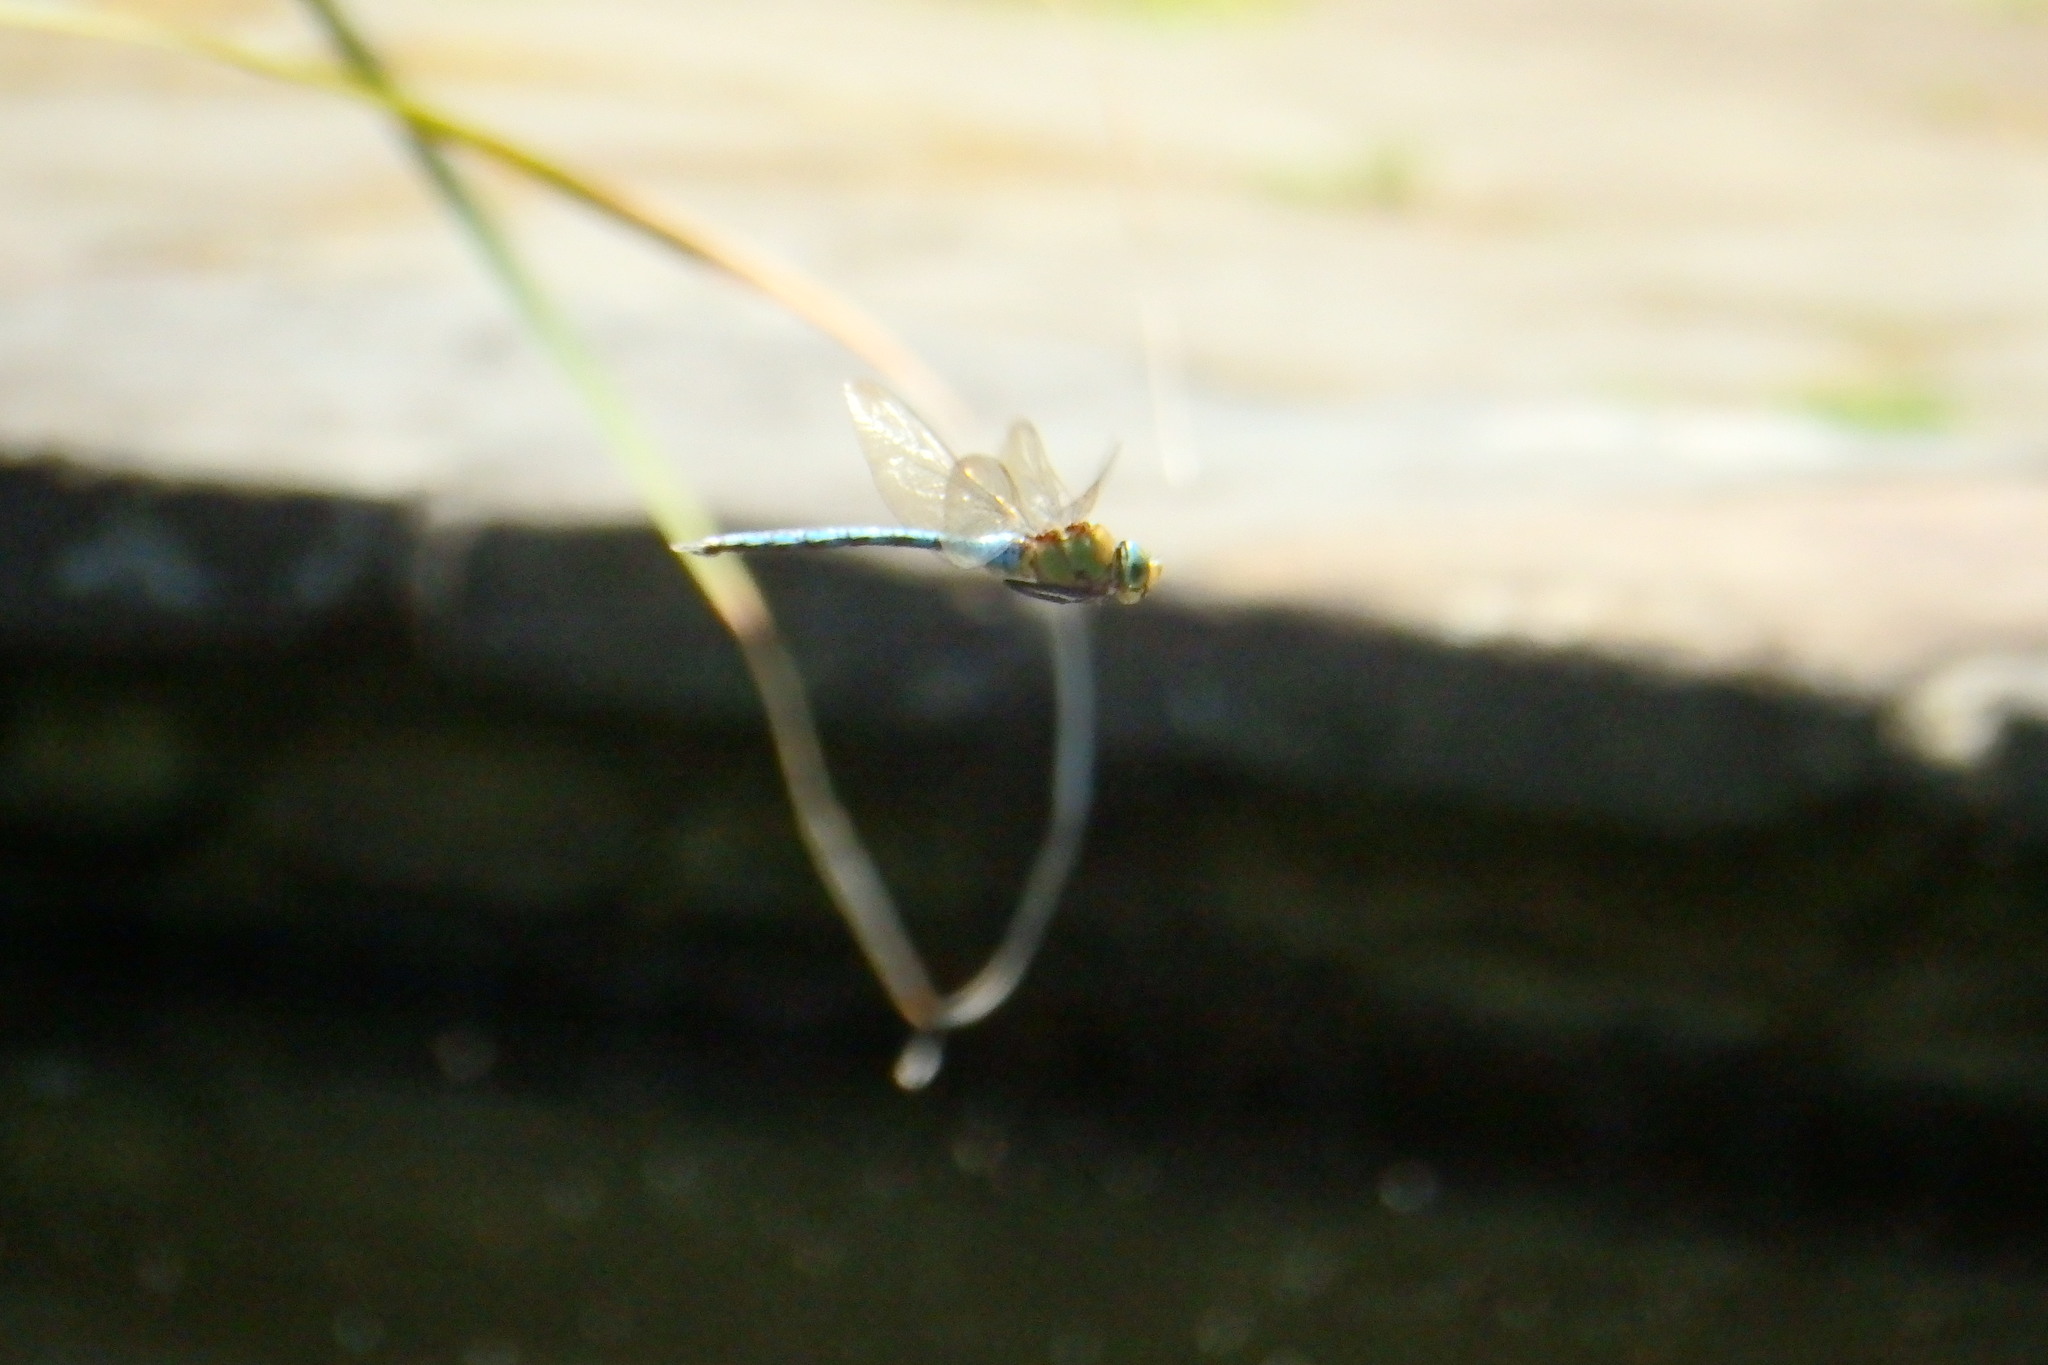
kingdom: Animalia
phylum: Arthropoda
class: Insecta
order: Odonata
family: Aeshnidae
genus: Anax
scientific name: Anax imperator
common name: Emperor dragonfly
